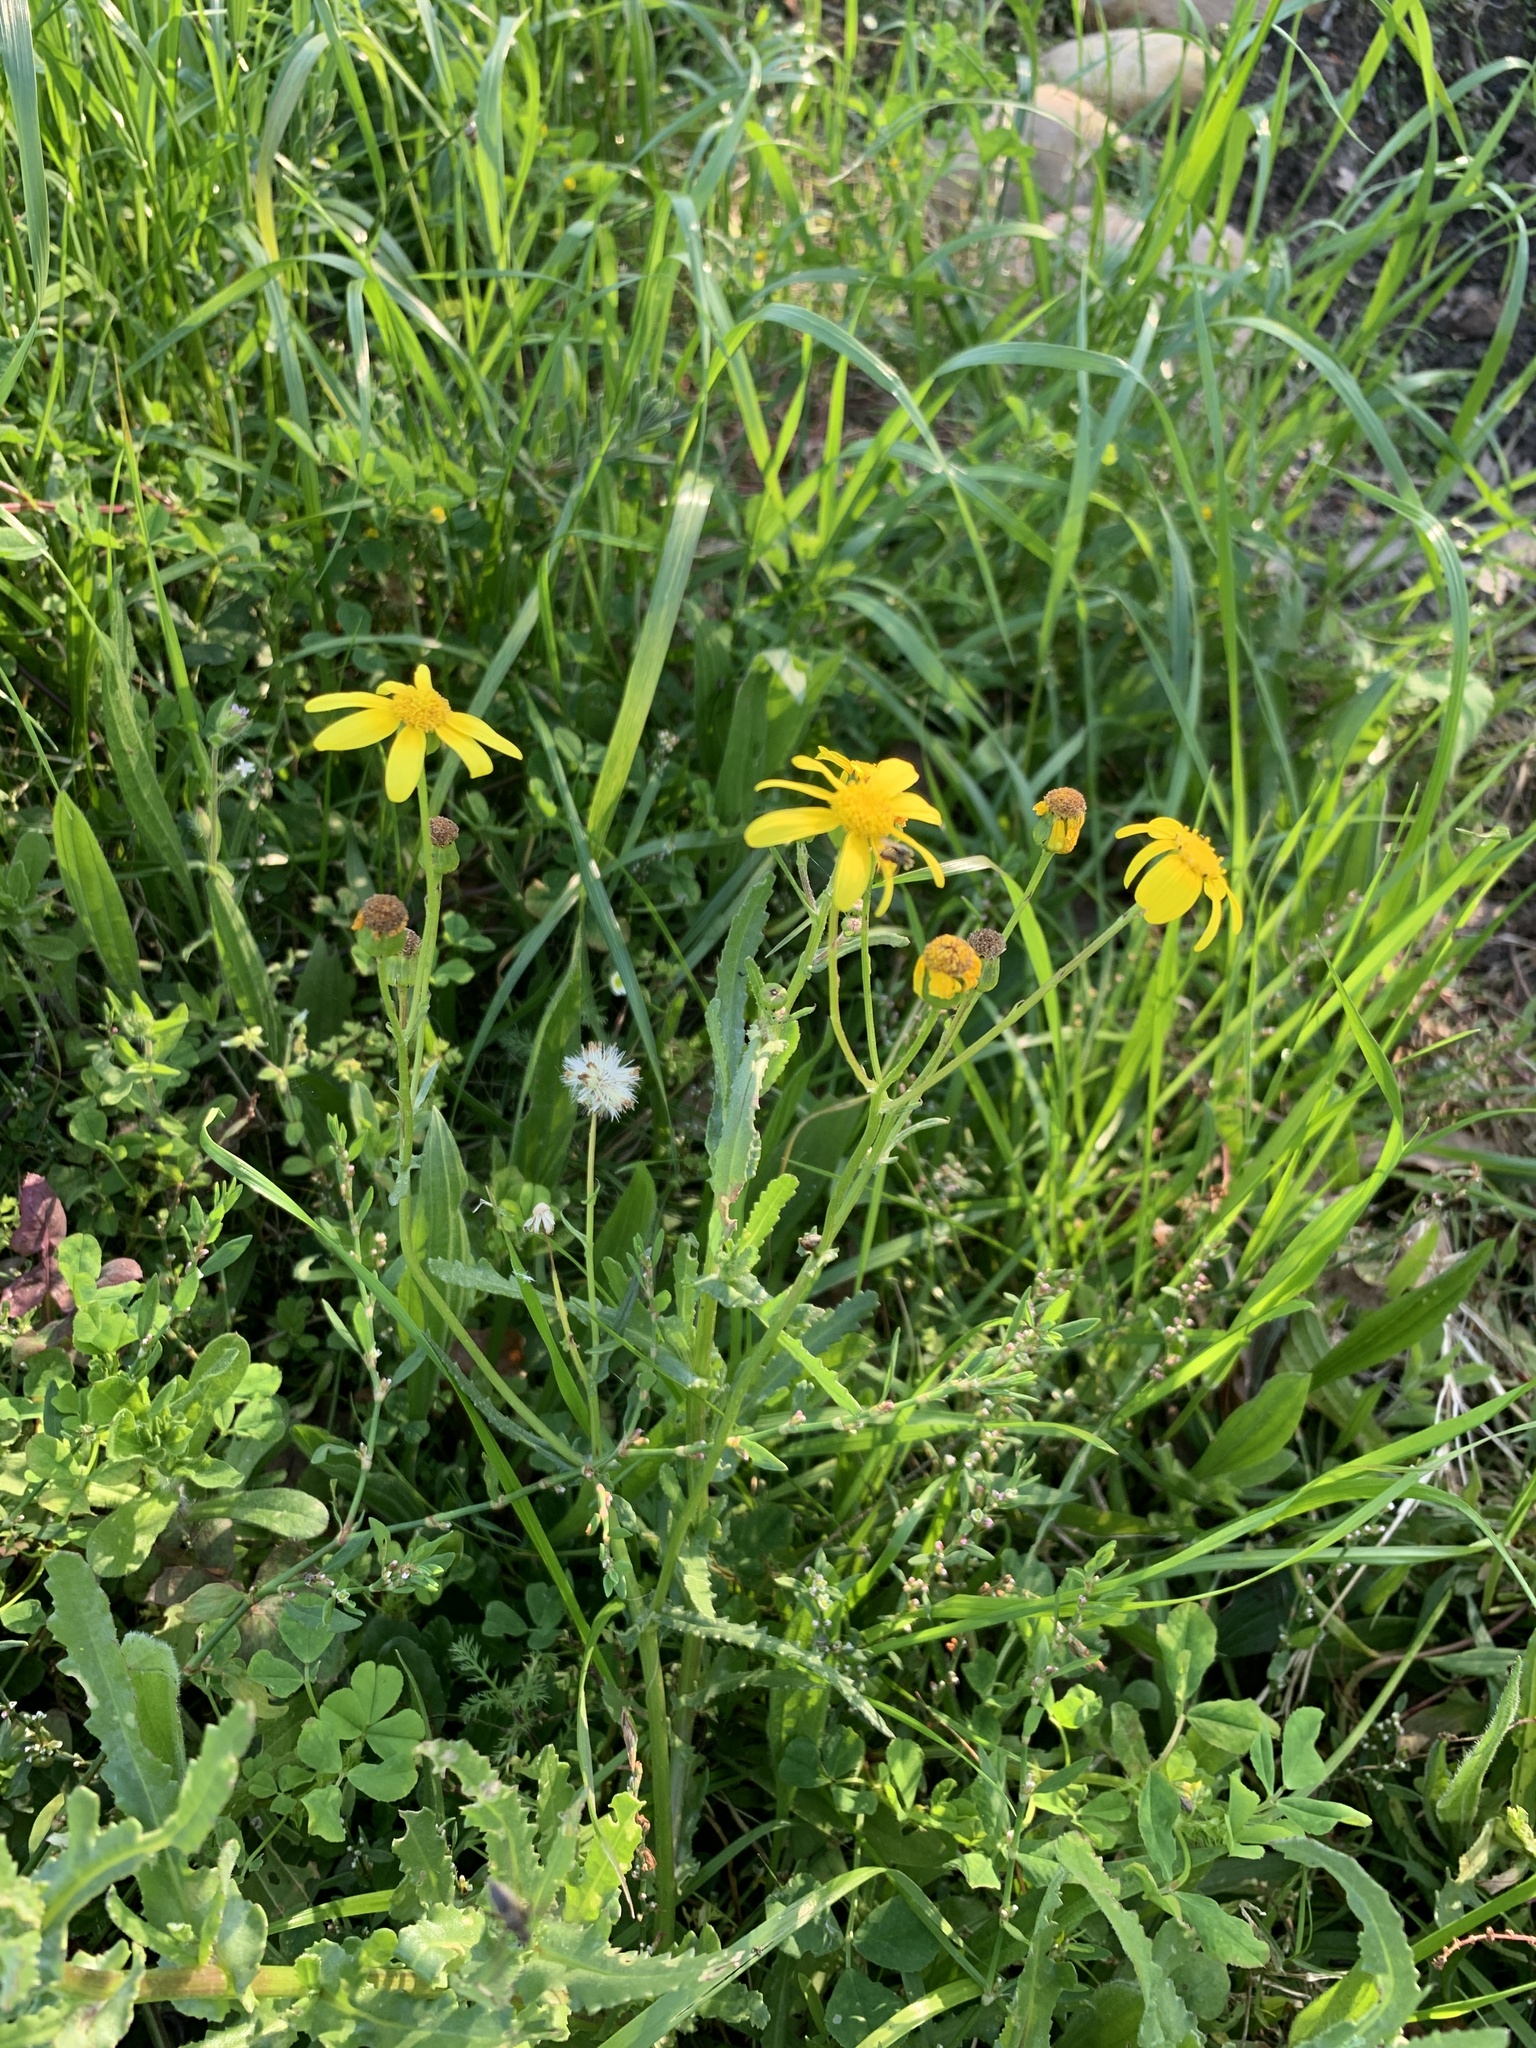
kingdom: Plantae
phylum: Tracheophyta
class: Magnoliopsida
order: Asterales
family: Asteraceae
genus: Senecio
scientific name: Senecio littoreus
